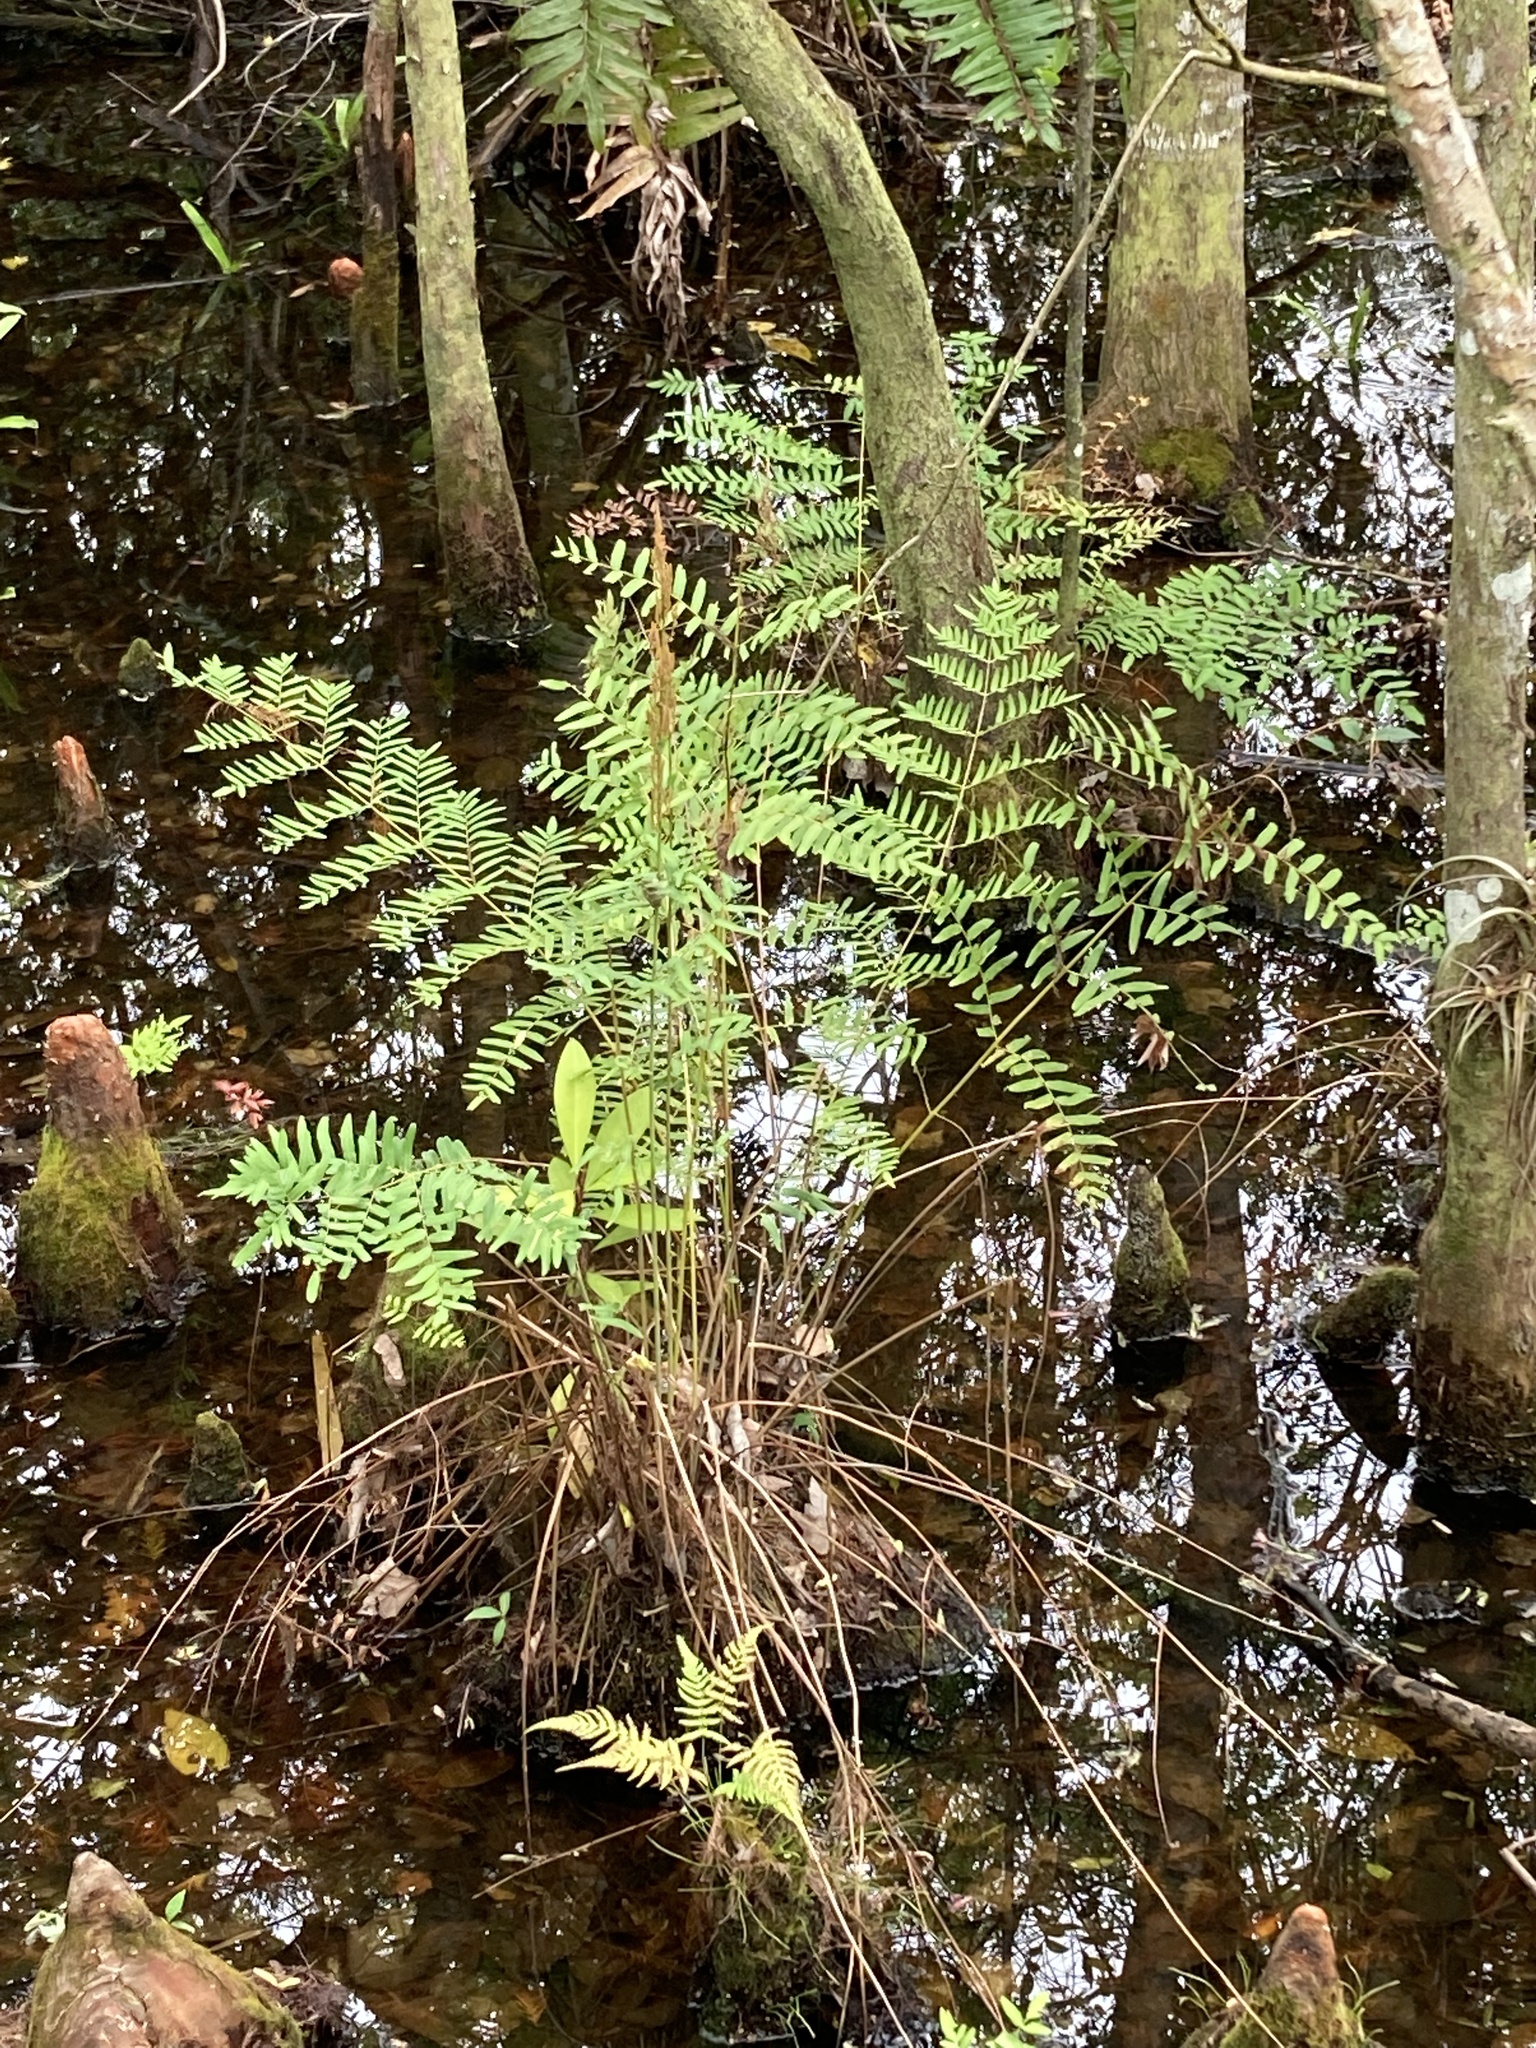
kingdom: Plantae
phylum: Tracheophyta
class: Polypodiopsida
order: Osmundales
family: Osmundaceae
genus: Osmunda
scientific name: Osmunda spectabilis
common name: American royal fern
